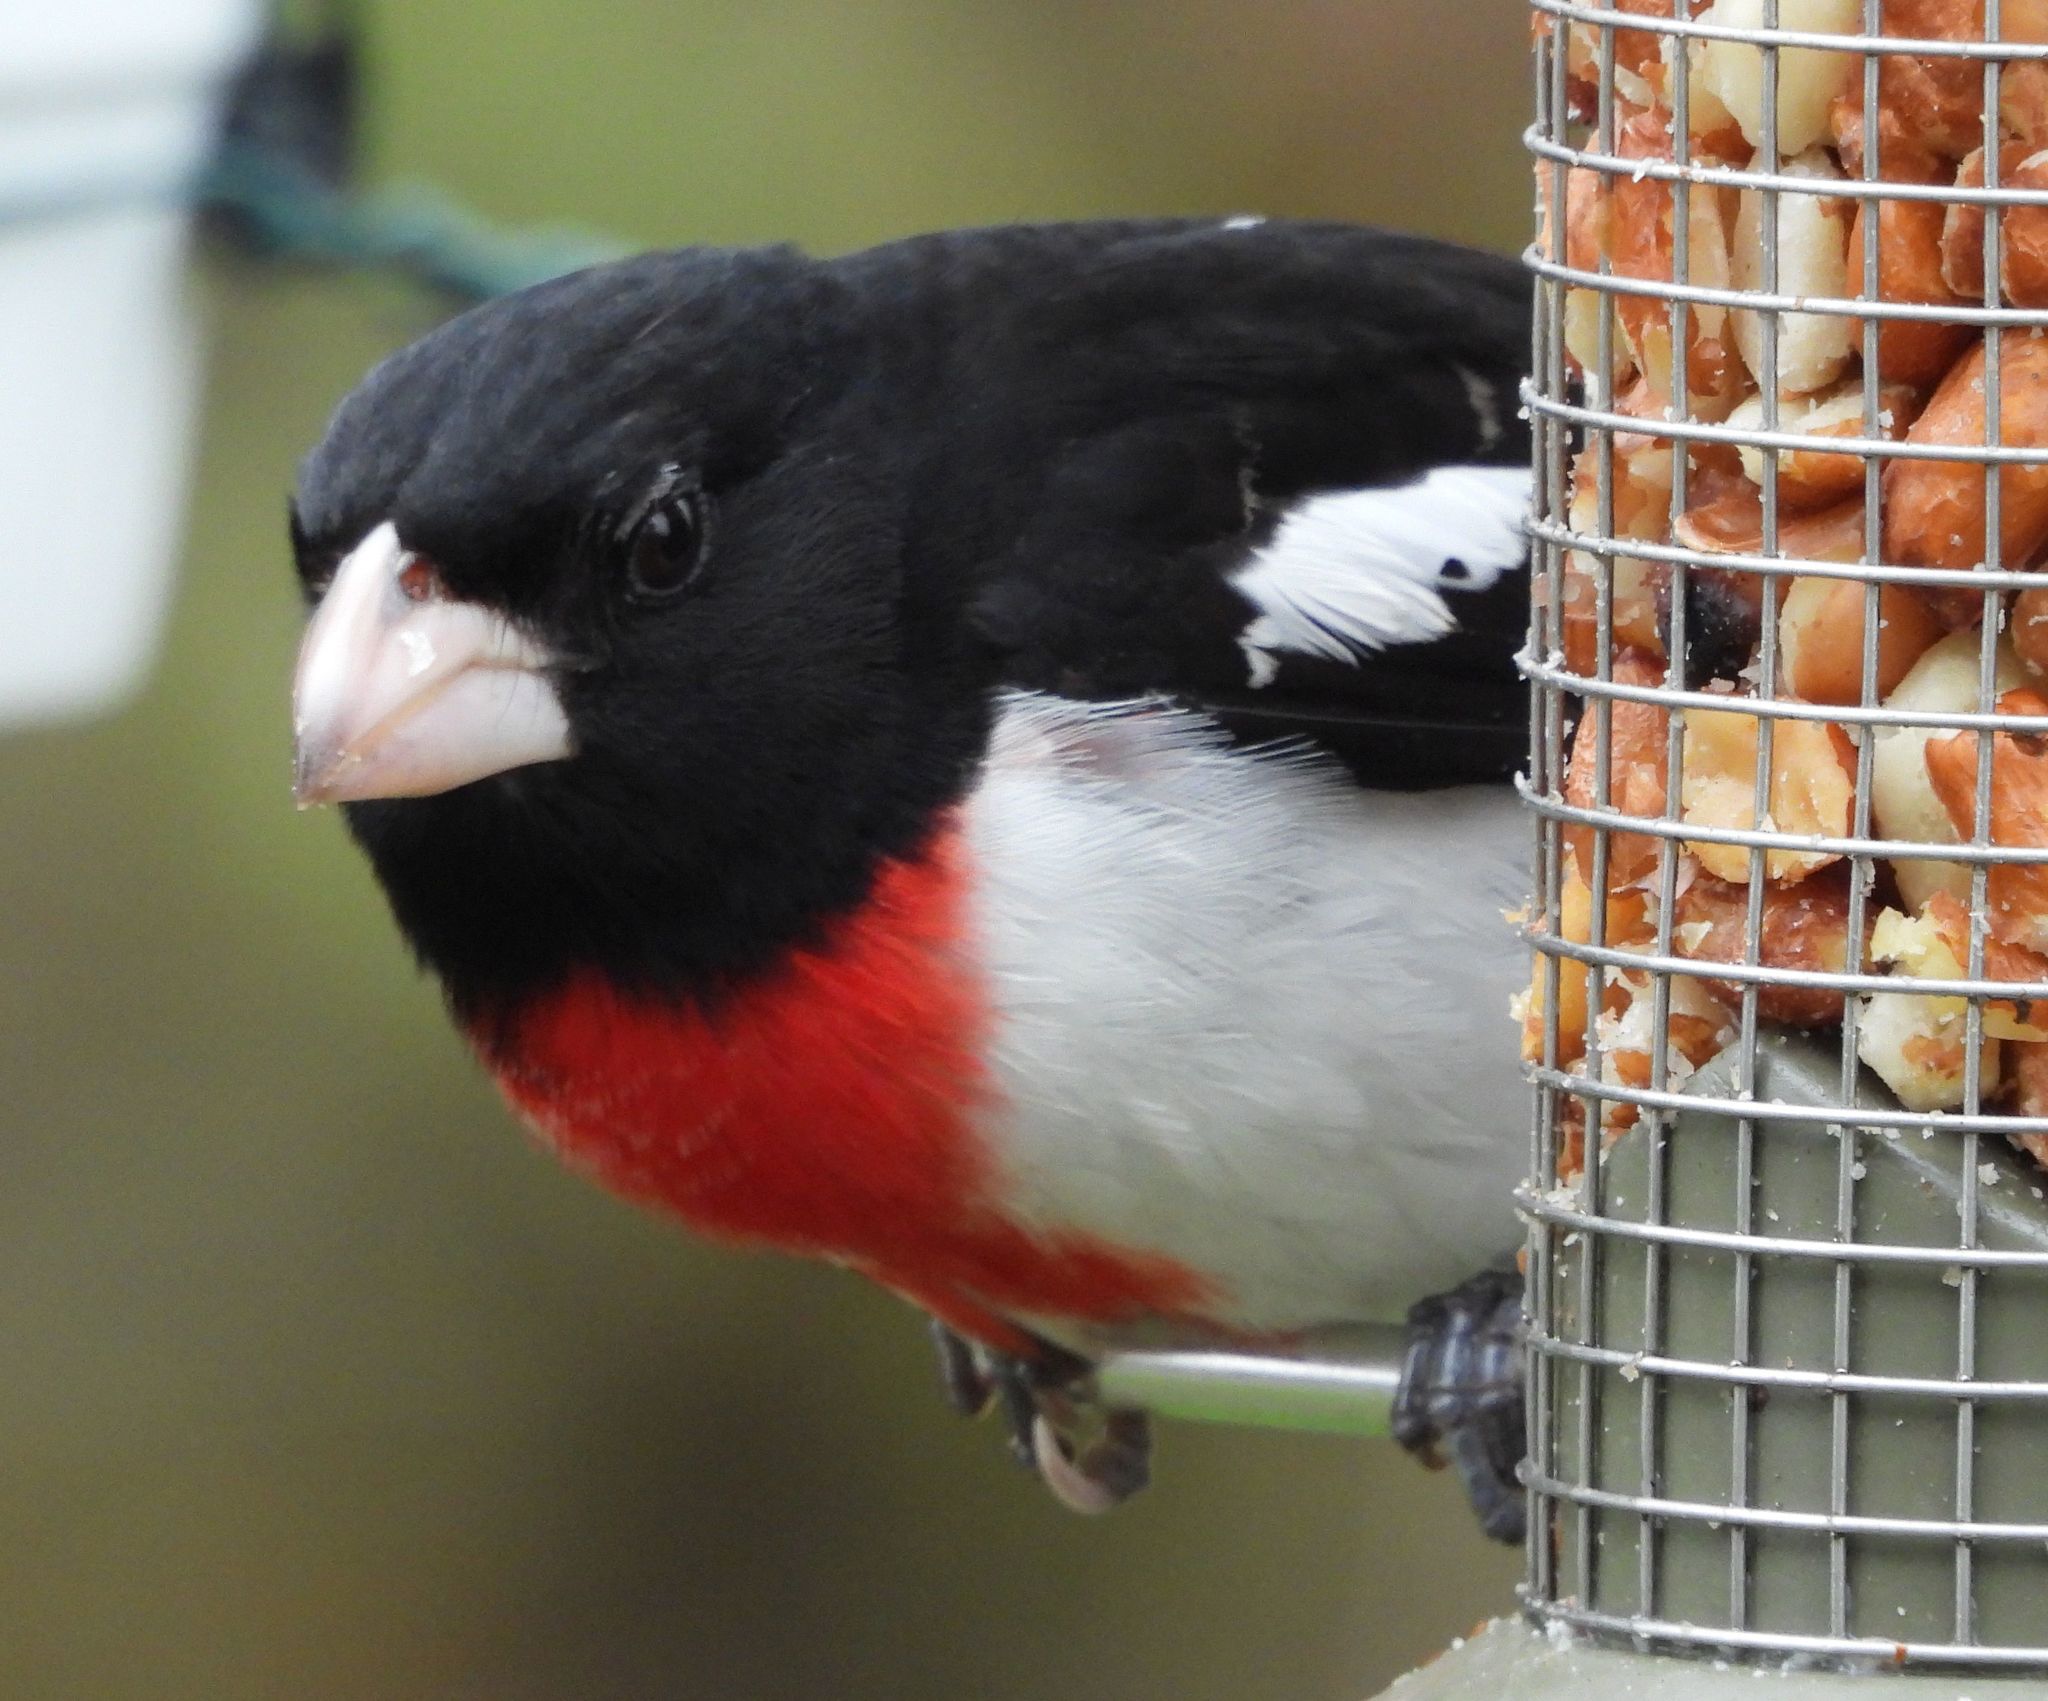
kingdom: Animalia
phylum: Chordata
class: Aves
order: Passeriformes
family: Cardinalidae
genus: Pheucticus
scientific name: Pheucticus ludovicianus
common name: Rose-breasted grosbeak
